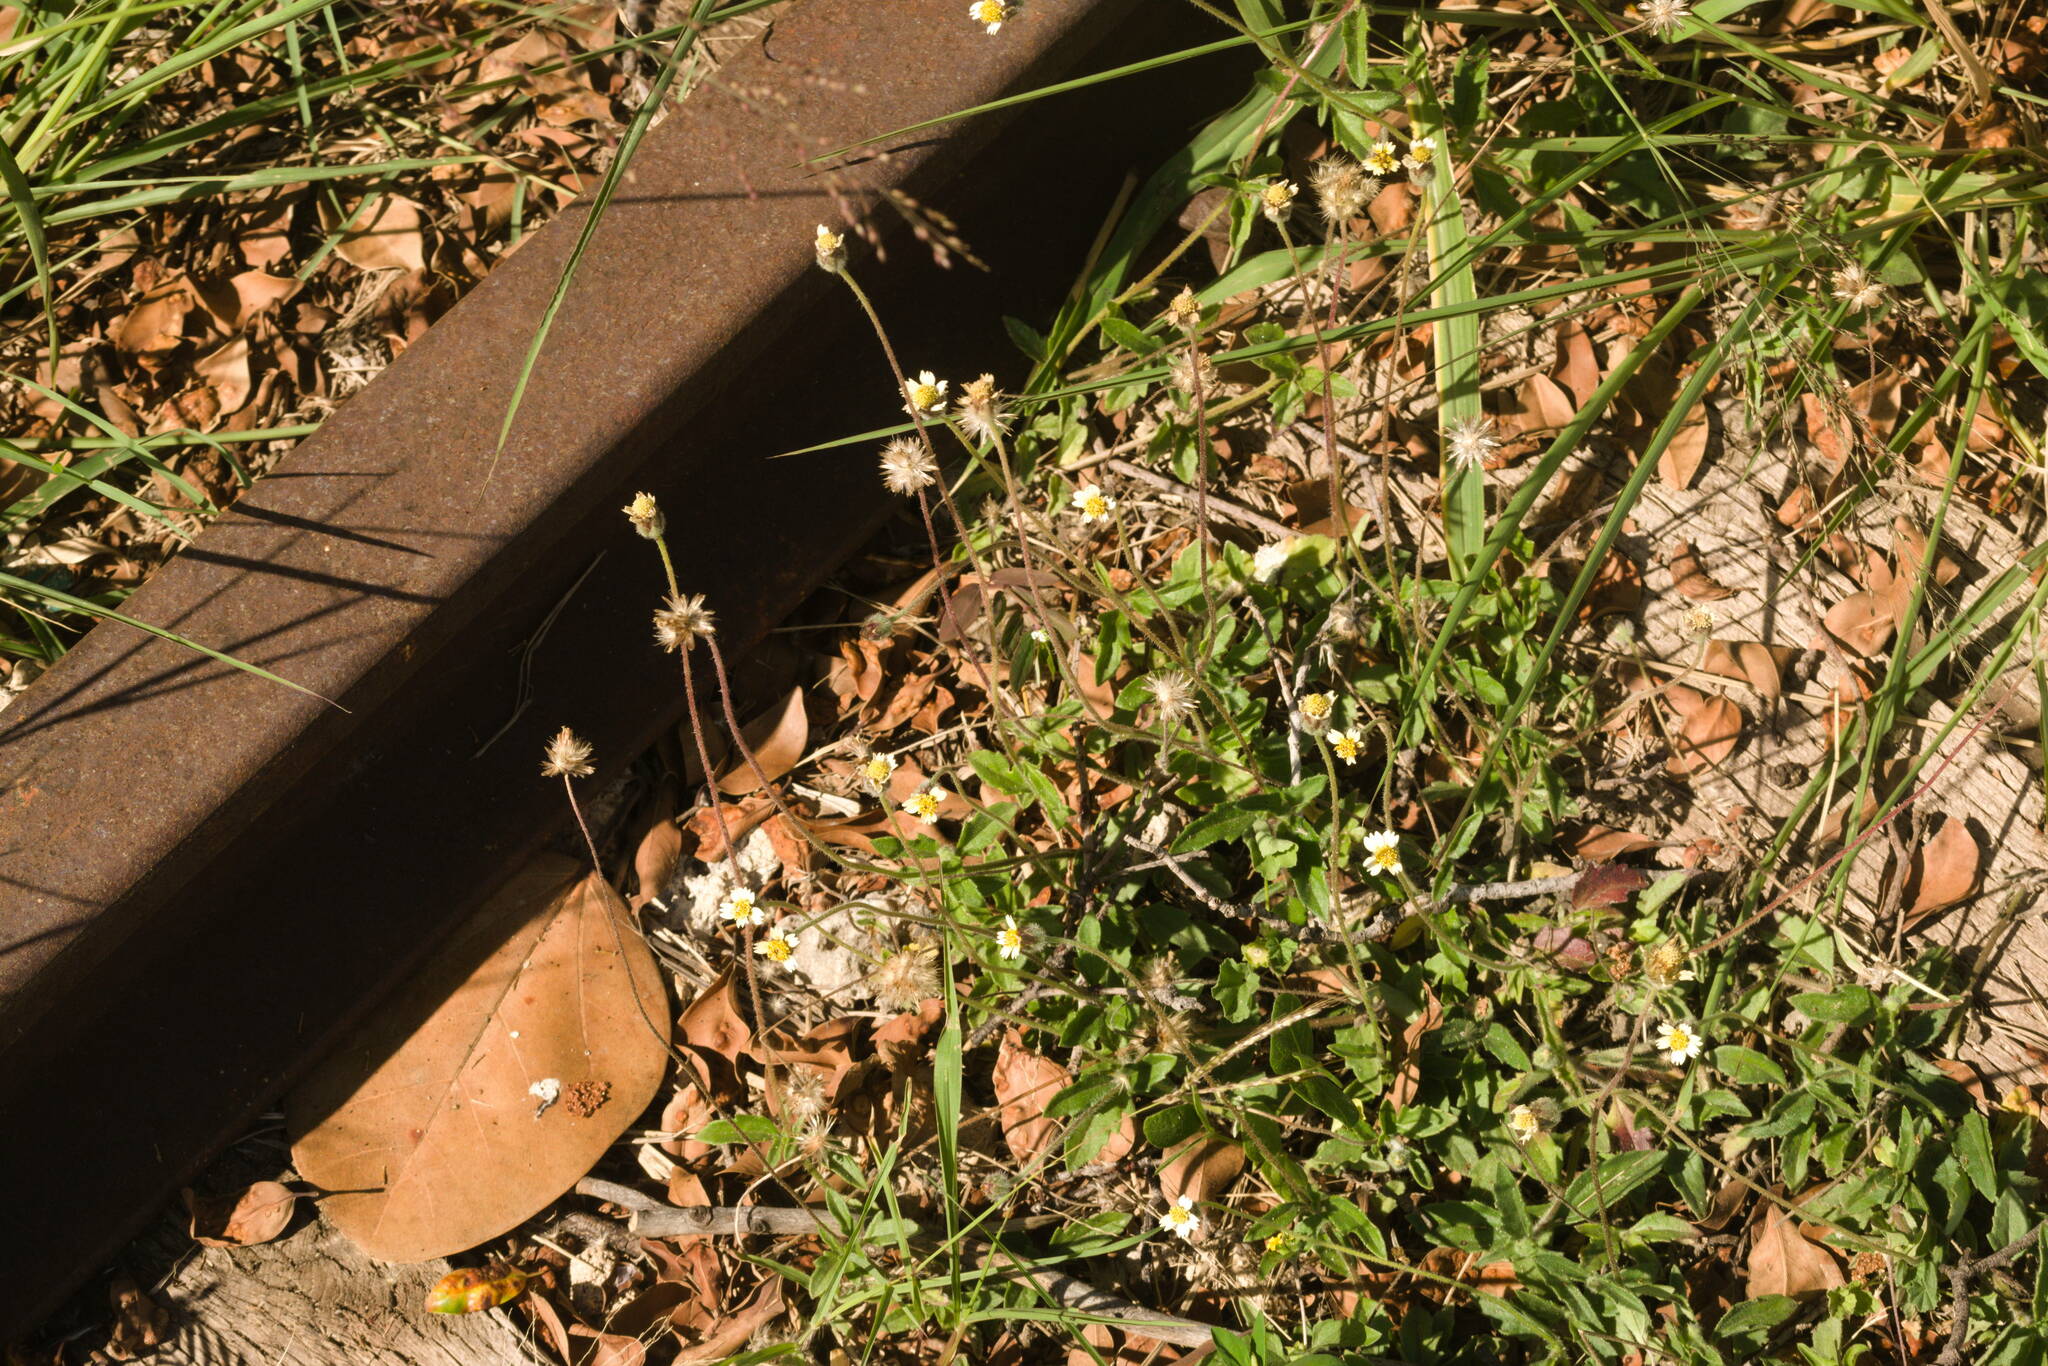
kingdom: Plantae
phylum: Tracheophyta
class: Magnoliopsida
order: Asterales
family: Asteraceae
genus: Tridax
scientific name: Tridax procumbens
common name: Coatbuttons
